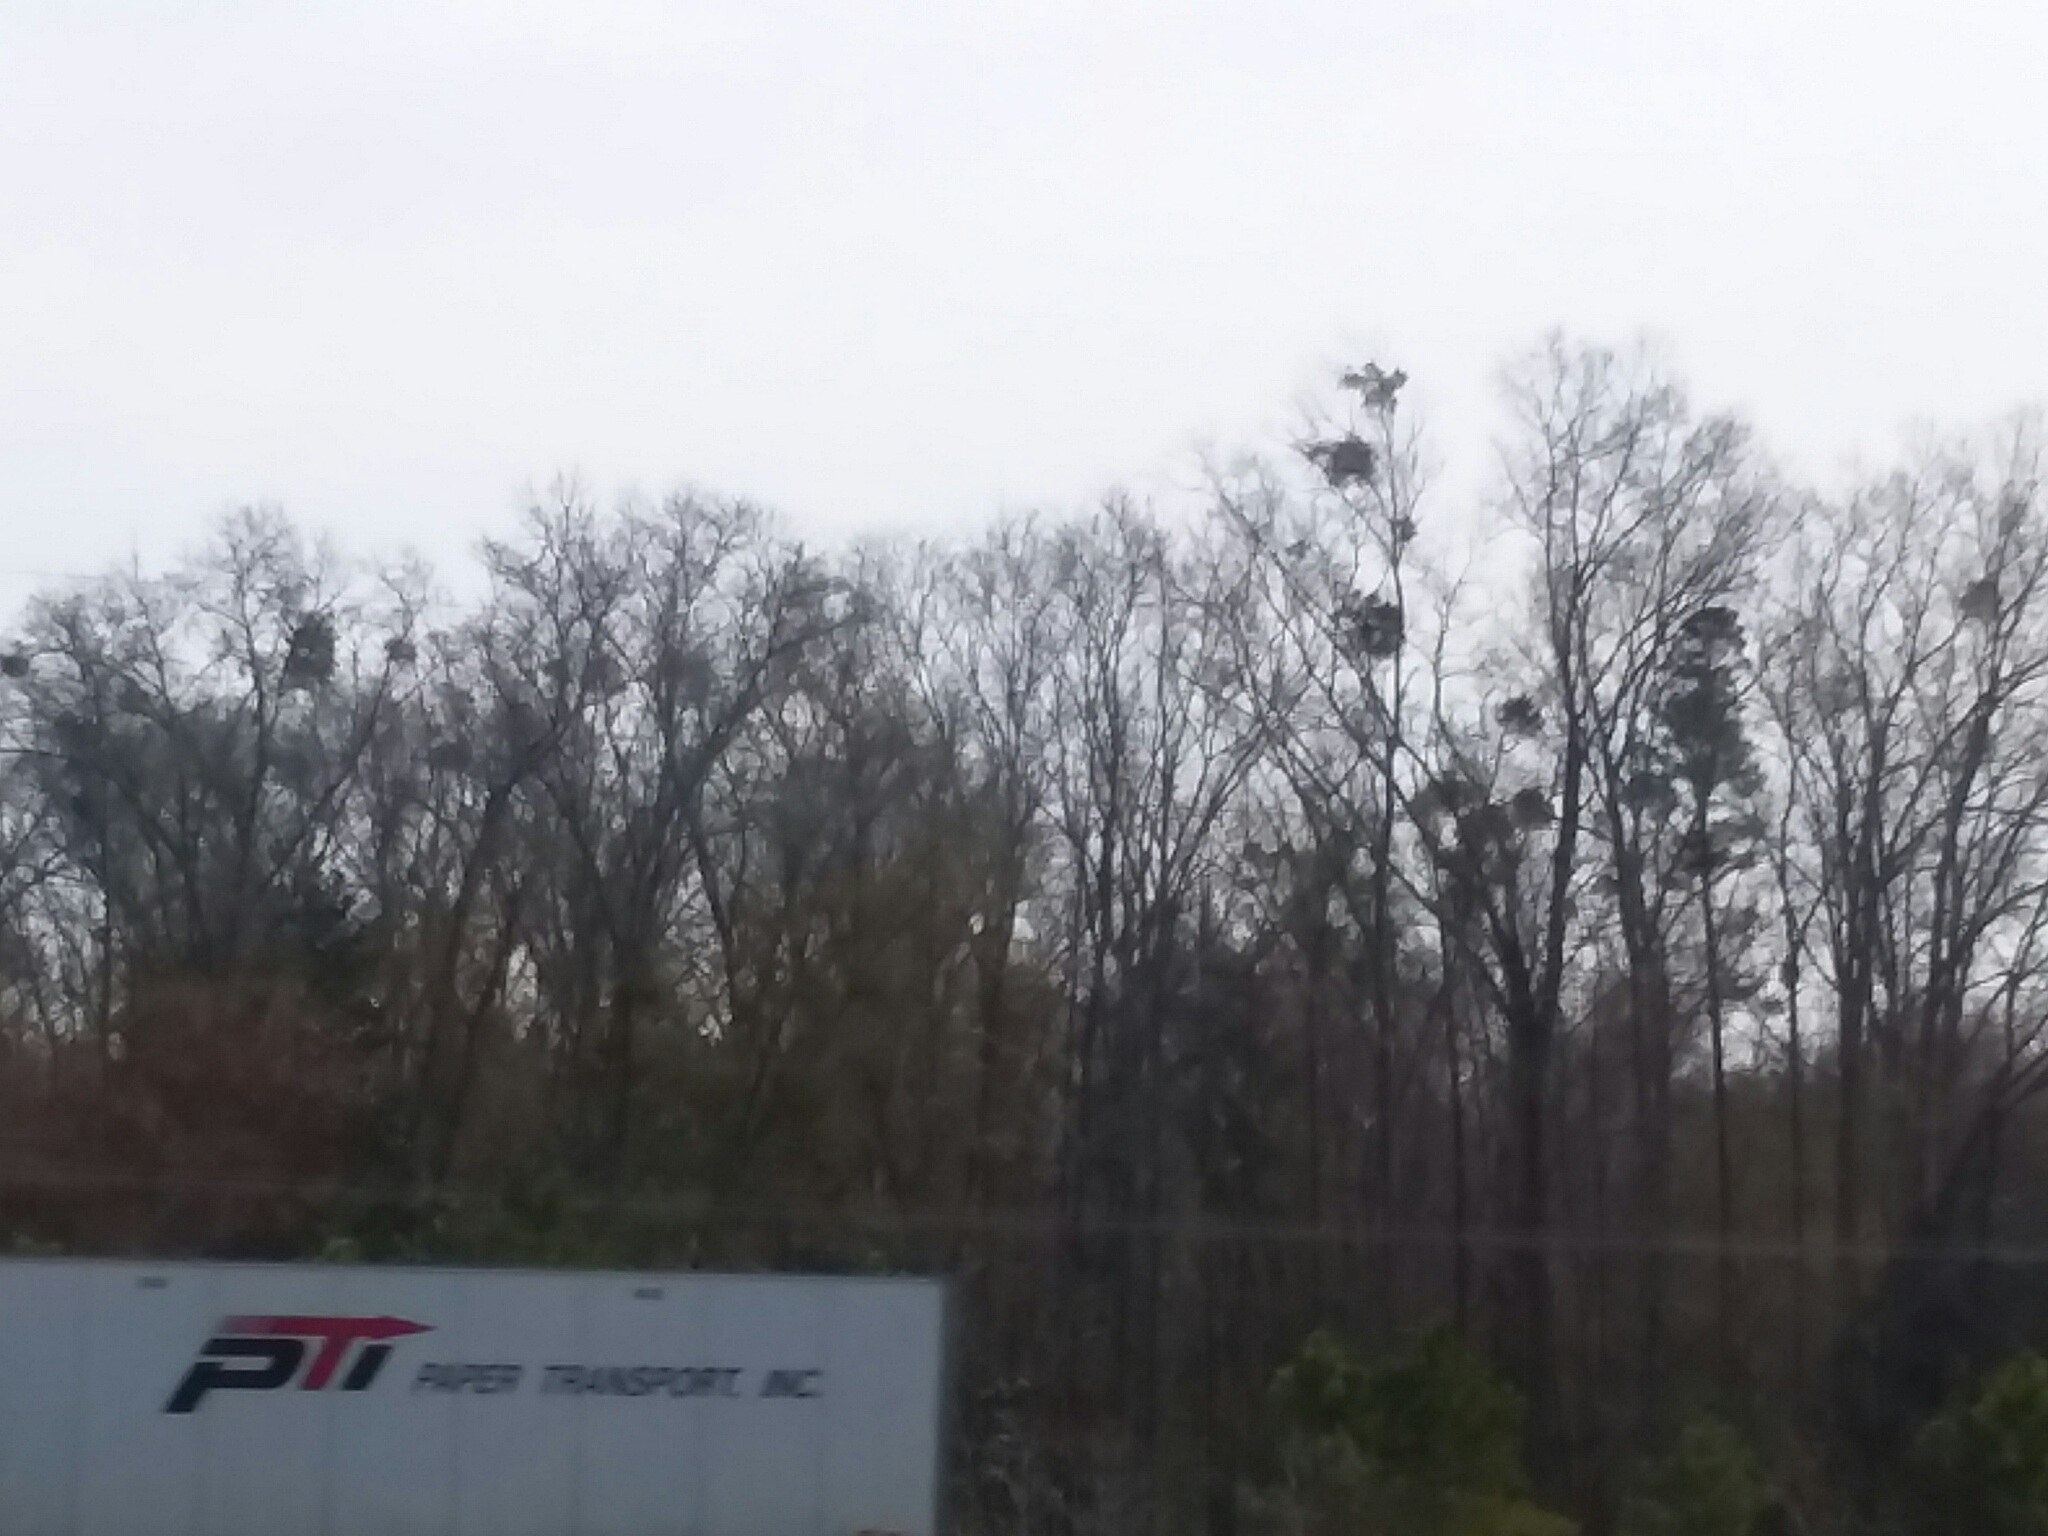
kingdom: Plantae
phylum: Tracheophyta
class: Magnoliopsida
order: Santalales
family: Viscaceae
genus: Phoradendron
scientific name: Phoradendron leucarpum
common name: Pacific mistletoe
